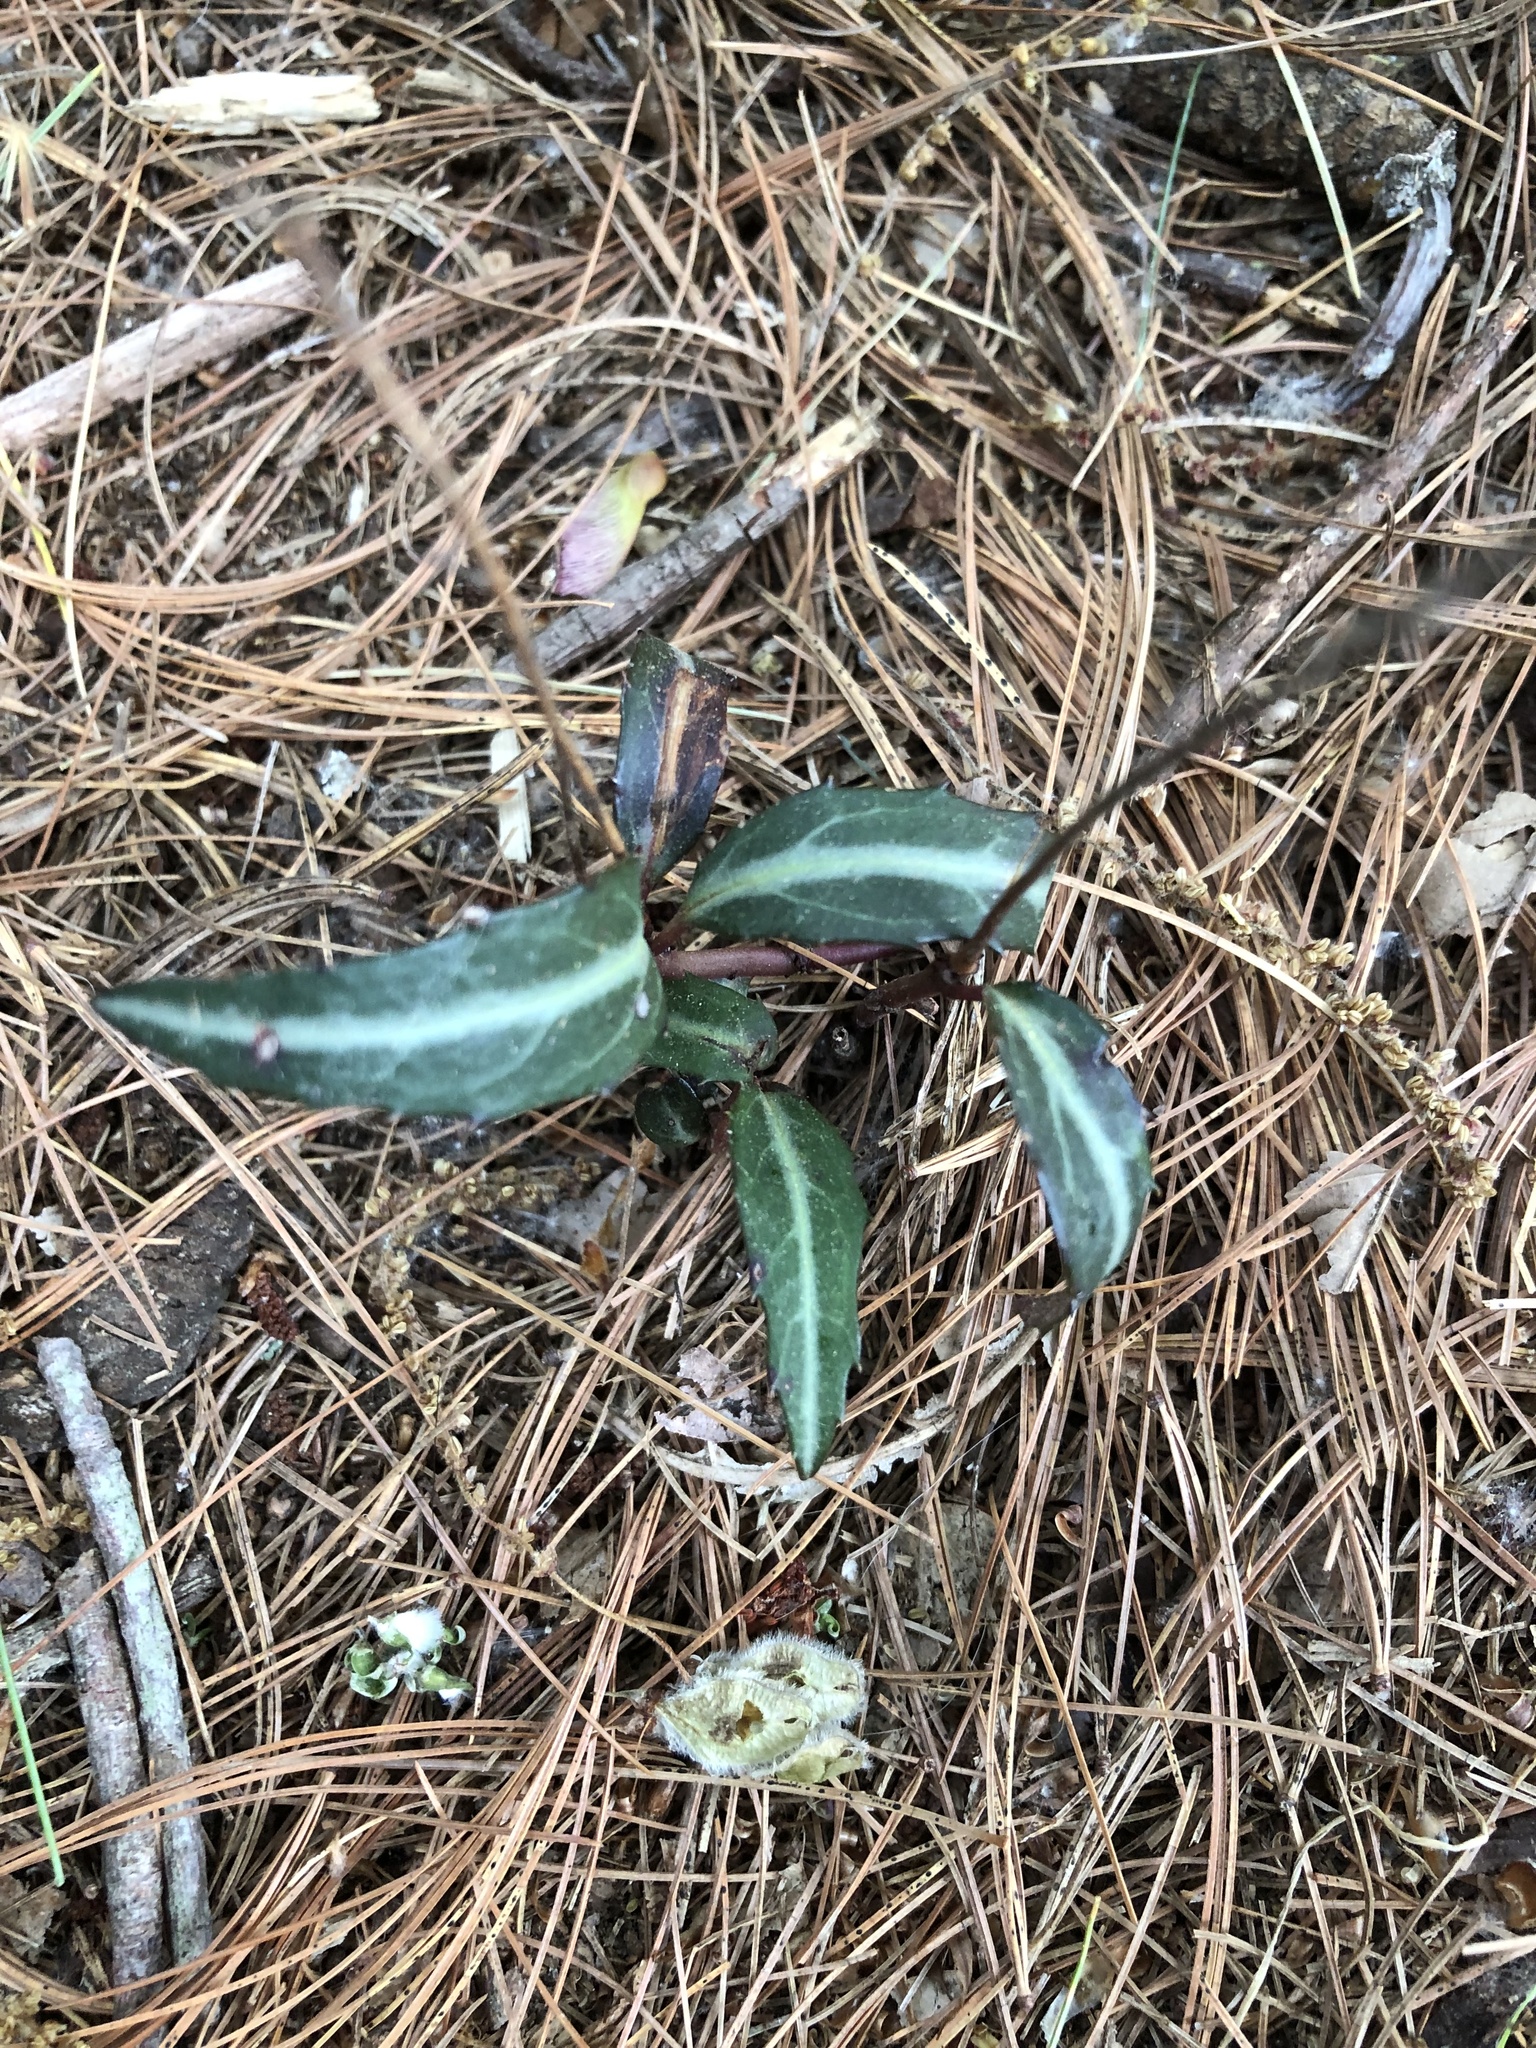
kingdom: Plantae
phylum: Tracheophyta
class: Magnoliopsida
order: Ericales
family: Ericaceae
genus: Chimaphila
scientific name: Chimaphila maculata
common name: Spotted pipsissewa
